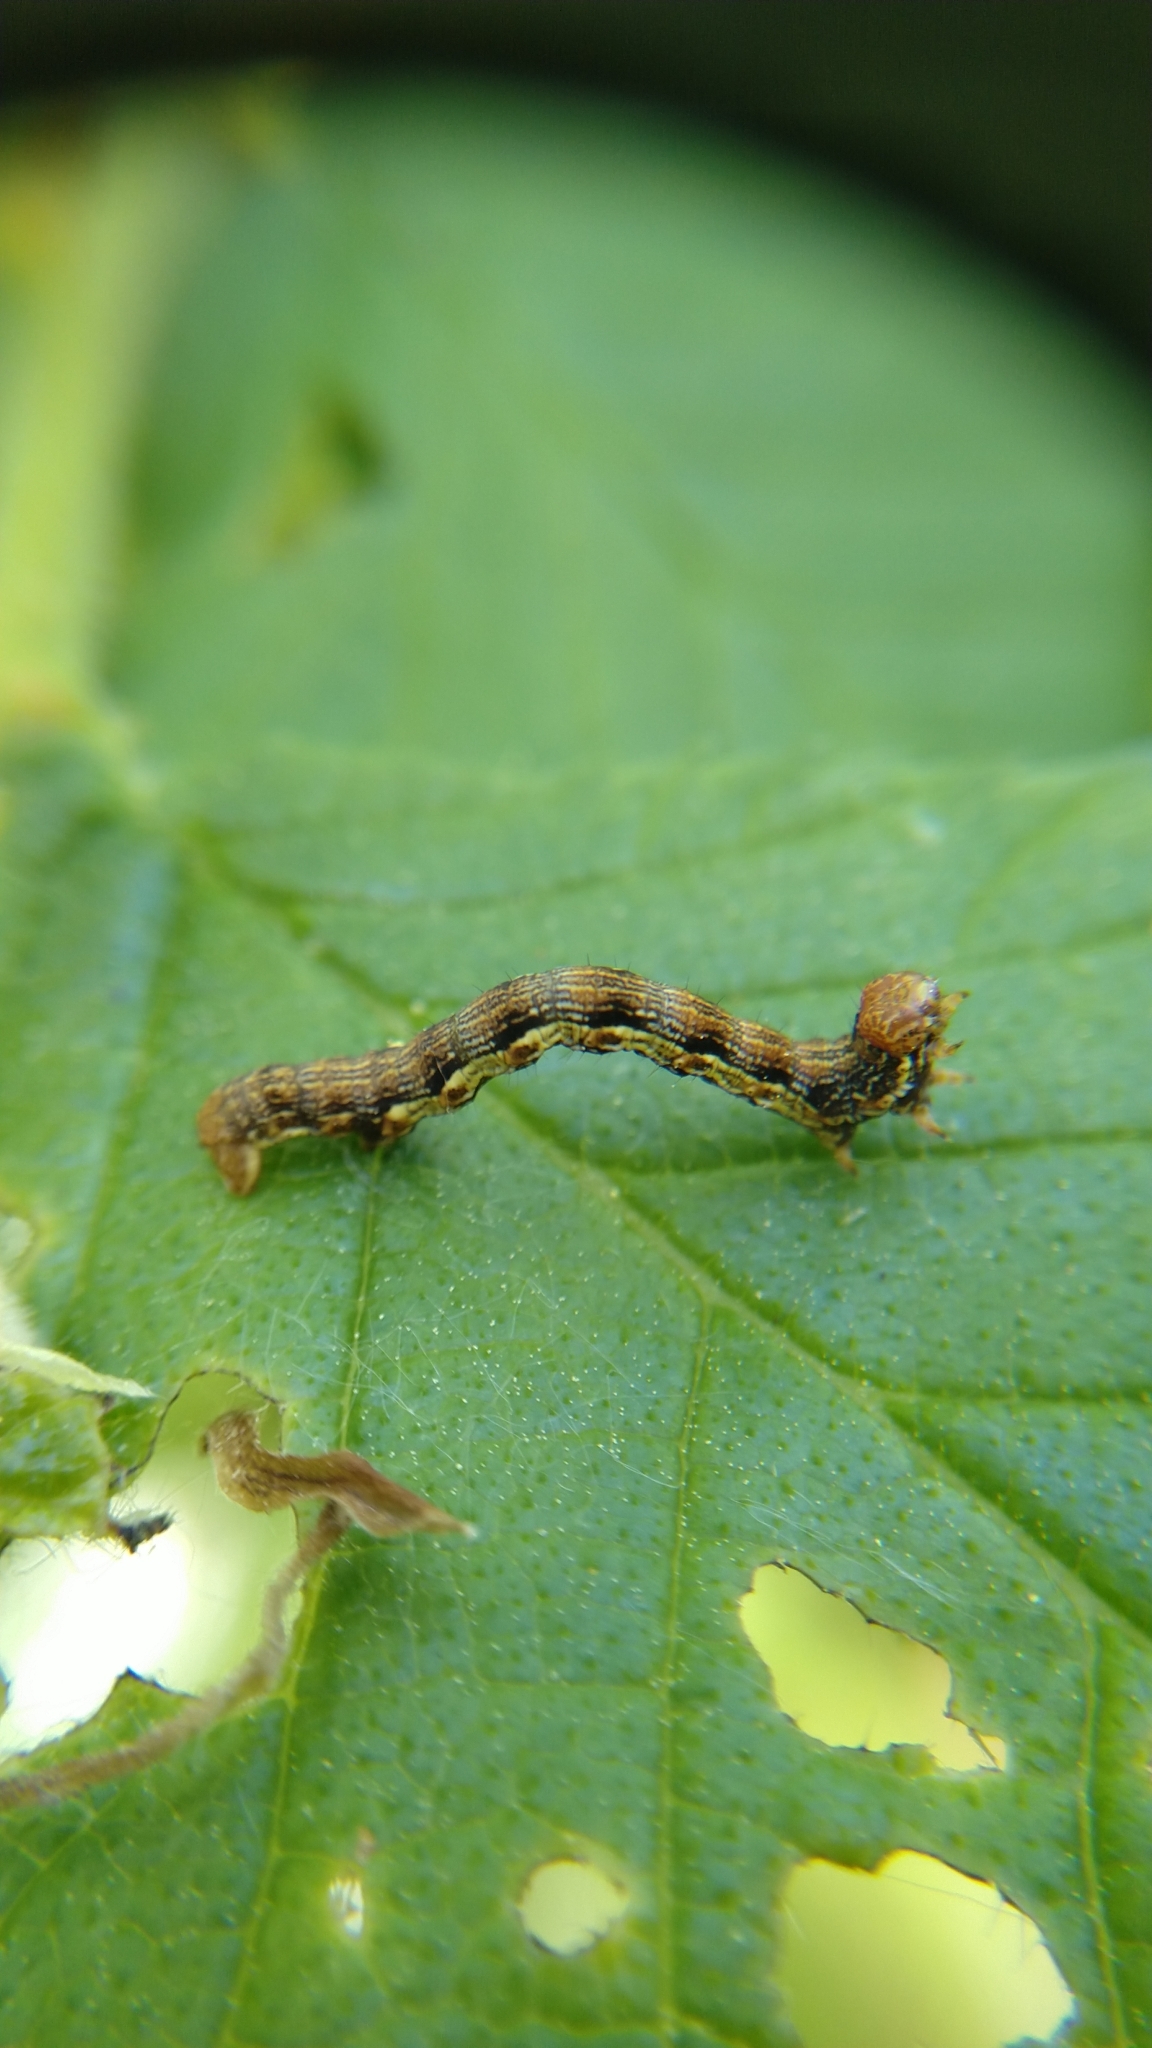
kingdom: Animalia
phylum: Arthropoda
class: Insecta
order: Lepidoptera
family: Geometridae
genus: Erannis
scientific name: Erannis defoliaria
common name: Mottled umber
